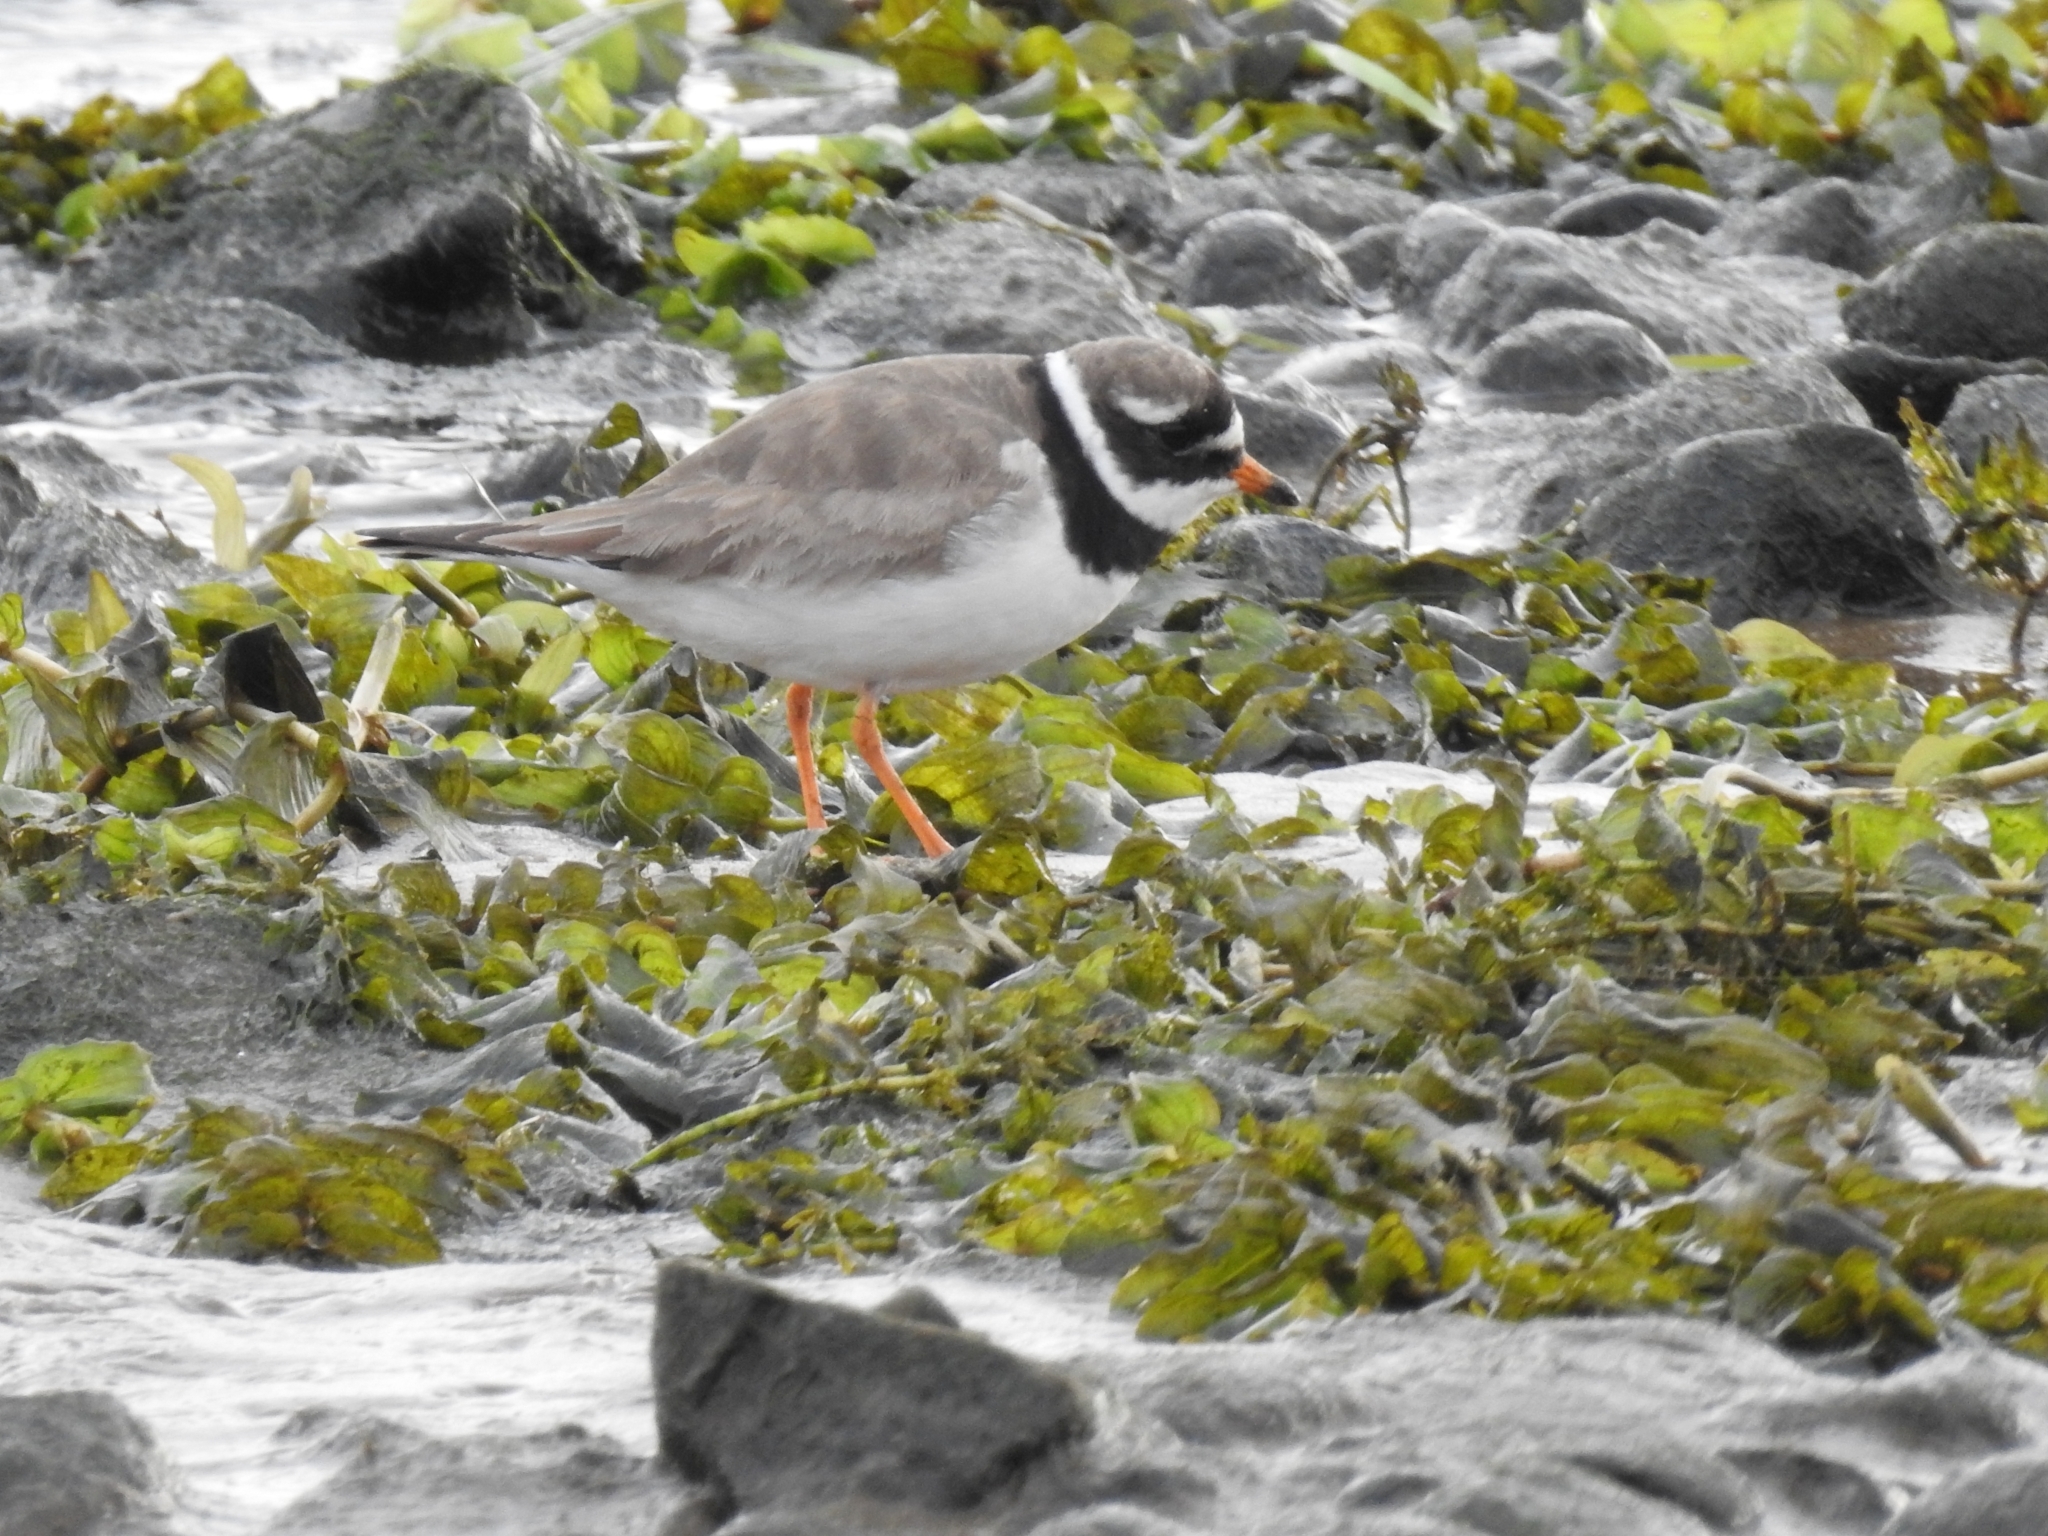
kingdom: Animalia
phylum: Chordata
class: Aves
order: Charadriiformes
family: Charadriidae
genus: Charadrius
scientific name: Charadrius hiaticula
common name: Common ringed plover
